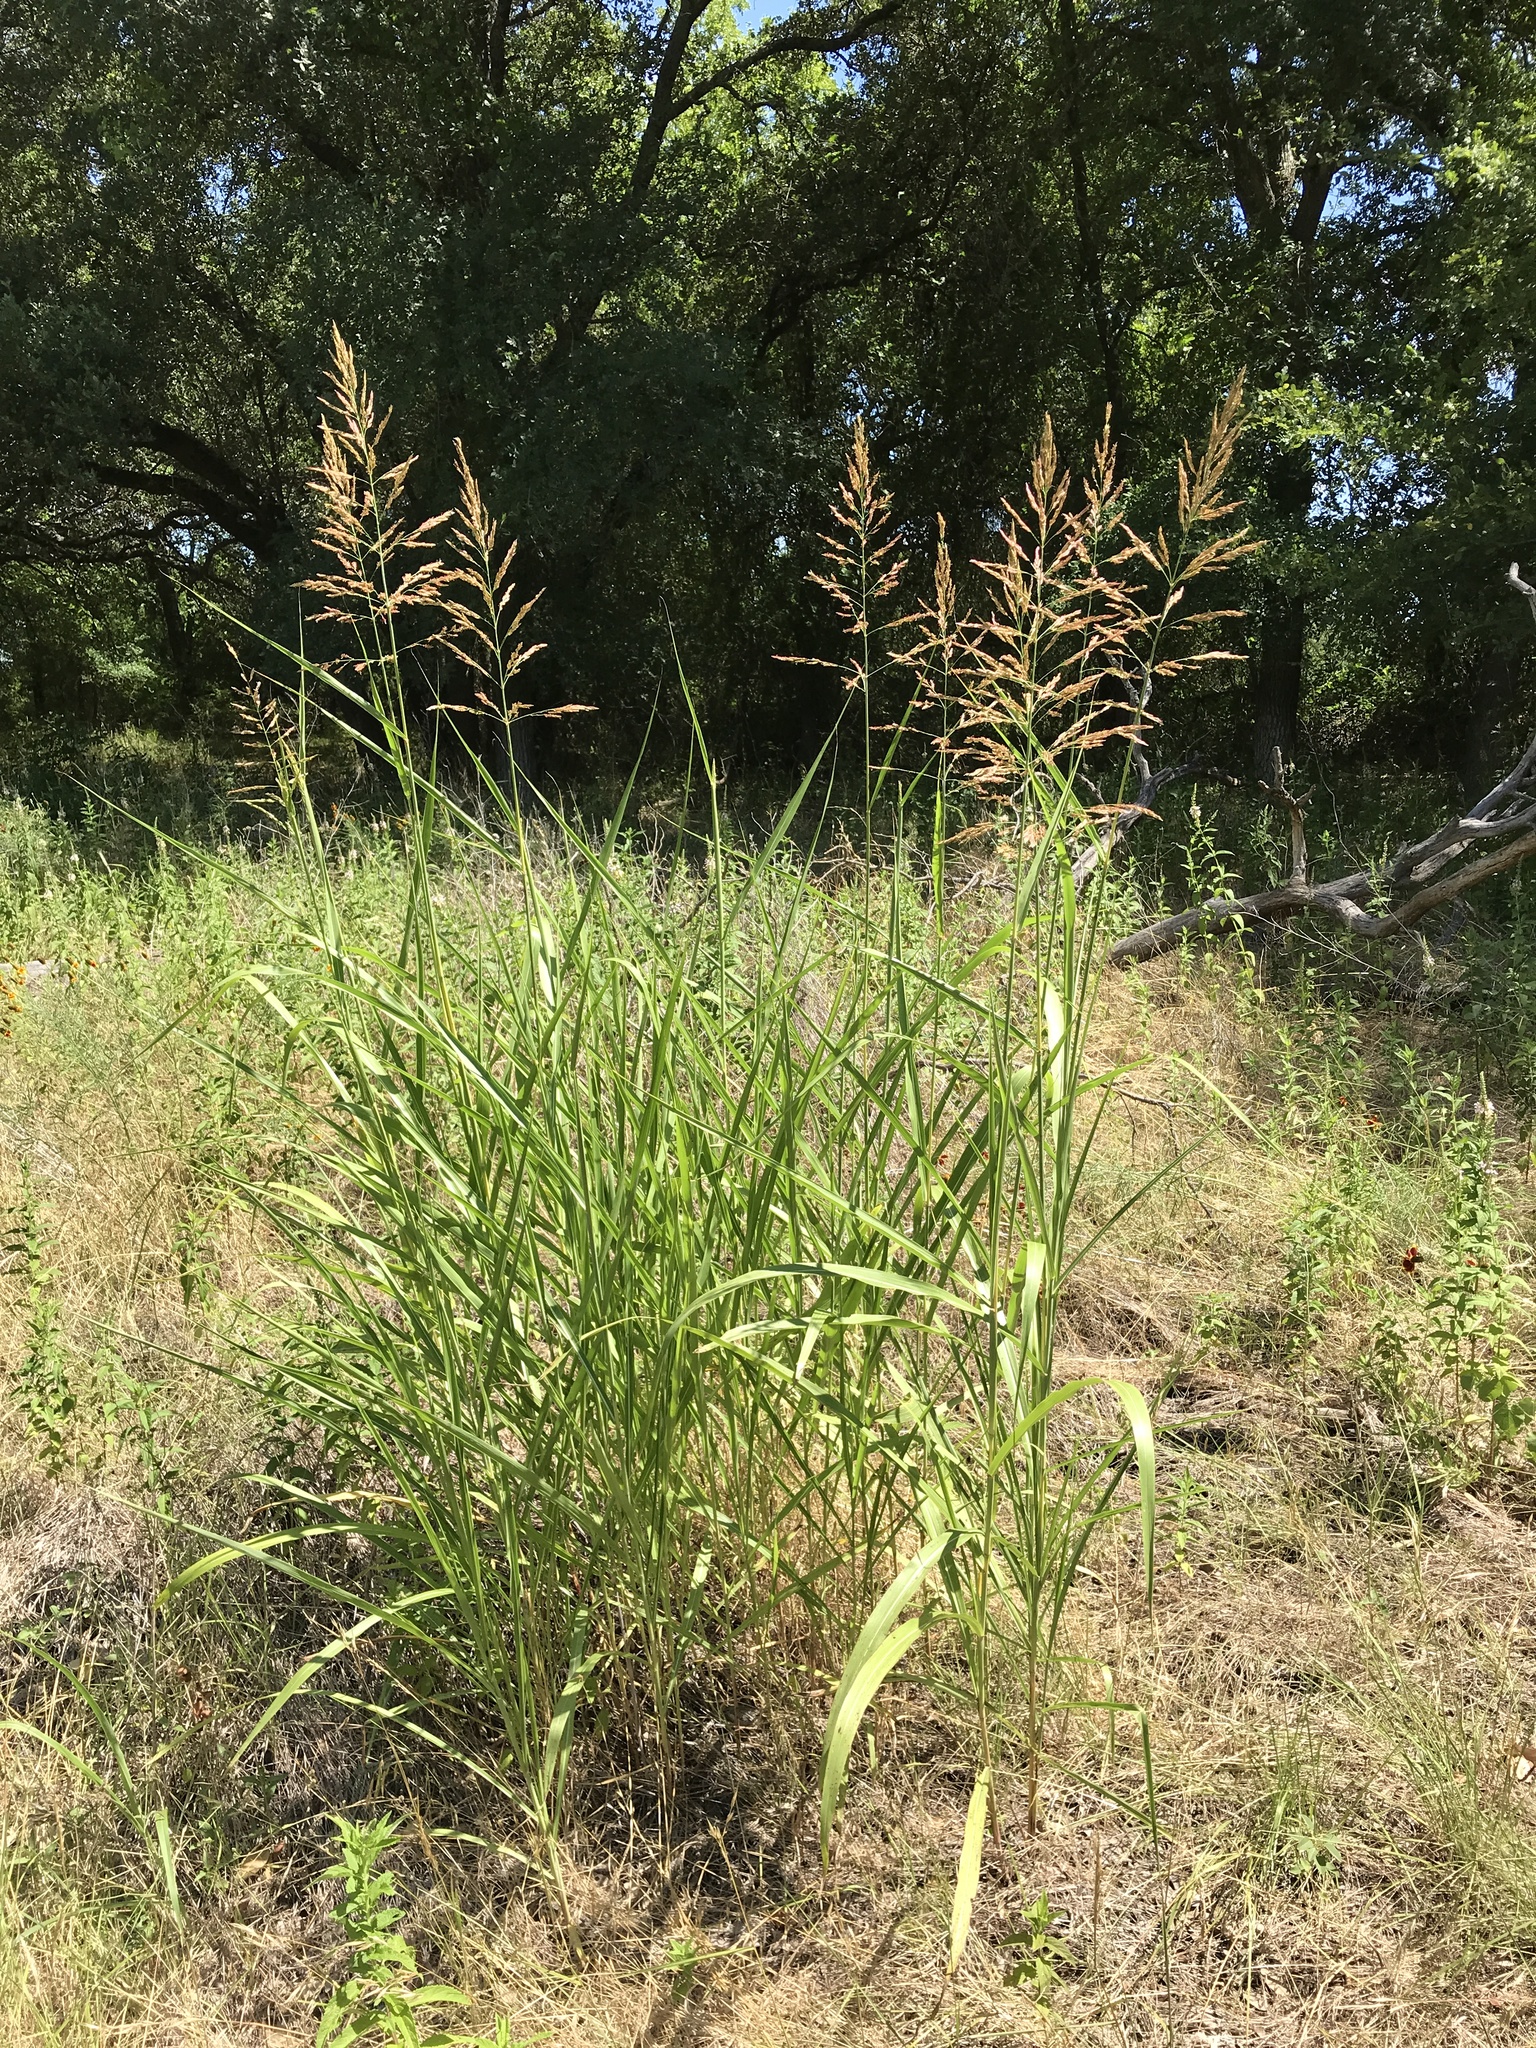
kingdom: Plantae
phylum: Tracheophyta
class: Liliopsida
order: Poales
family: Poaceae
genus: Sorghum
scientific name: Sorghum halepense
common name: Johnson-grass
